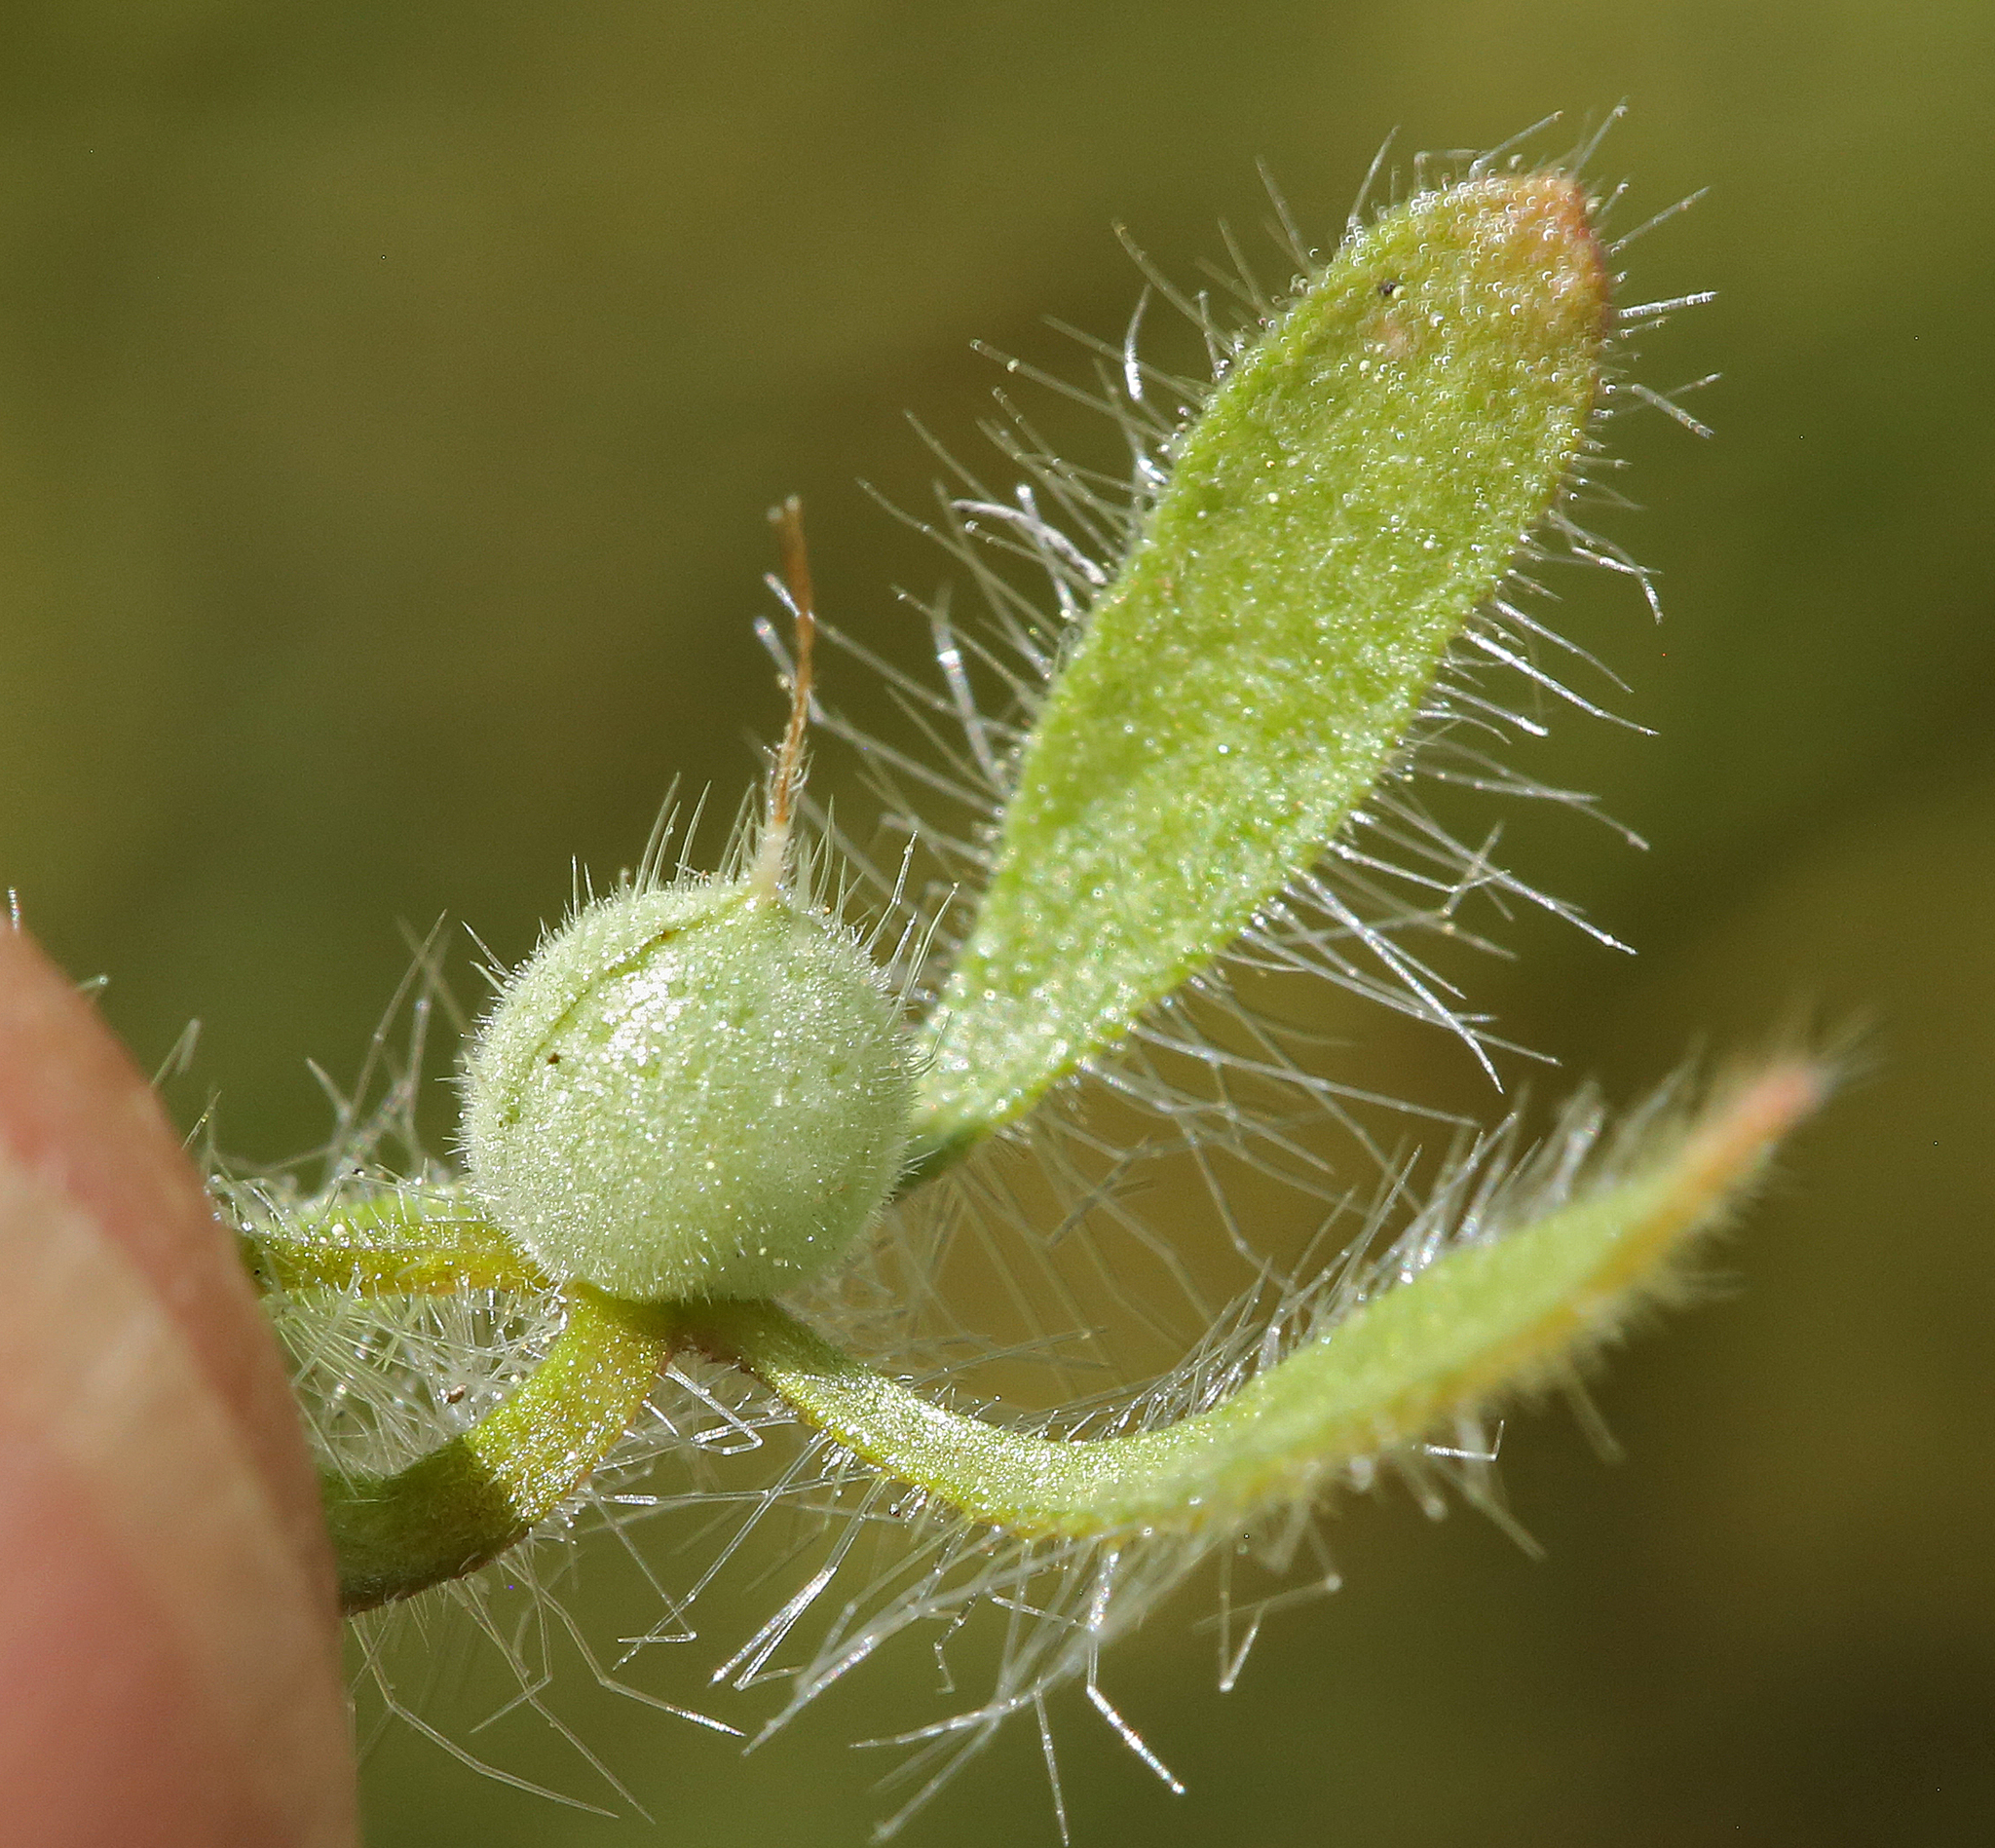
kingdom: Plantae
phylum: Tracheophyta
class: Magnoliopsida
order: Boraginales
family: Hydrophyllaceae
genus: Phacelia
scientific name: Phacelia cryptantha
